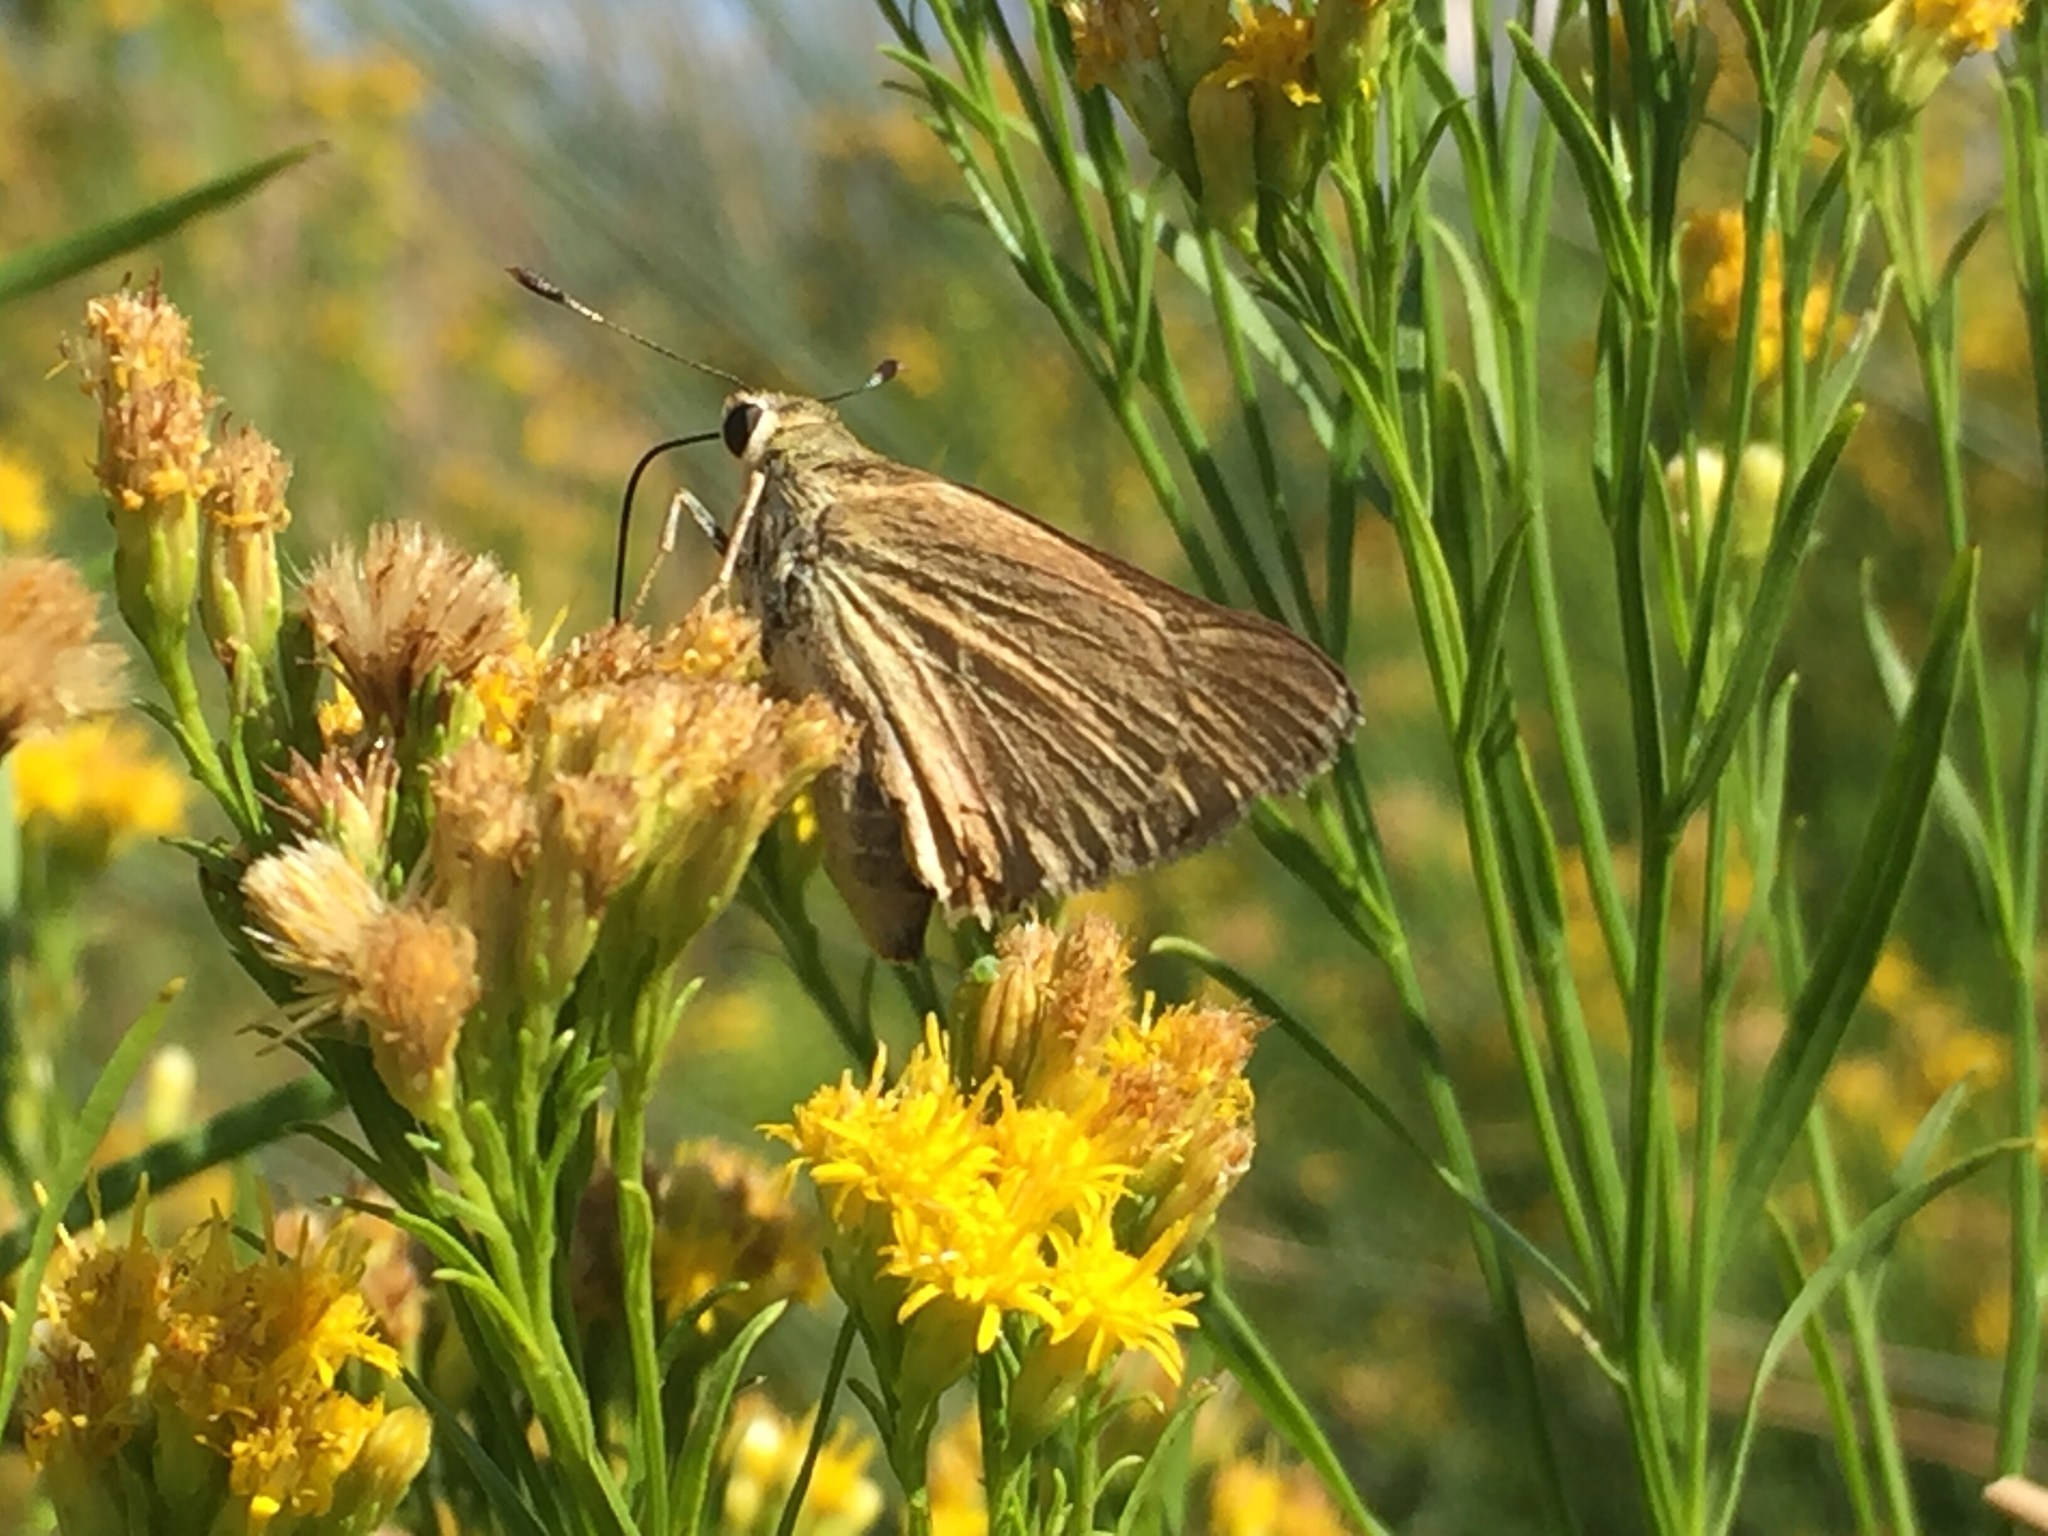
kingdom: Animalia
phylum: Arthropoda
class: Insecta
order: Lepidoptera
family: Hesperiidae
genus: Ochlodes
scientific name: Ochlodes sylvanoides
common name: Woodland skipper
